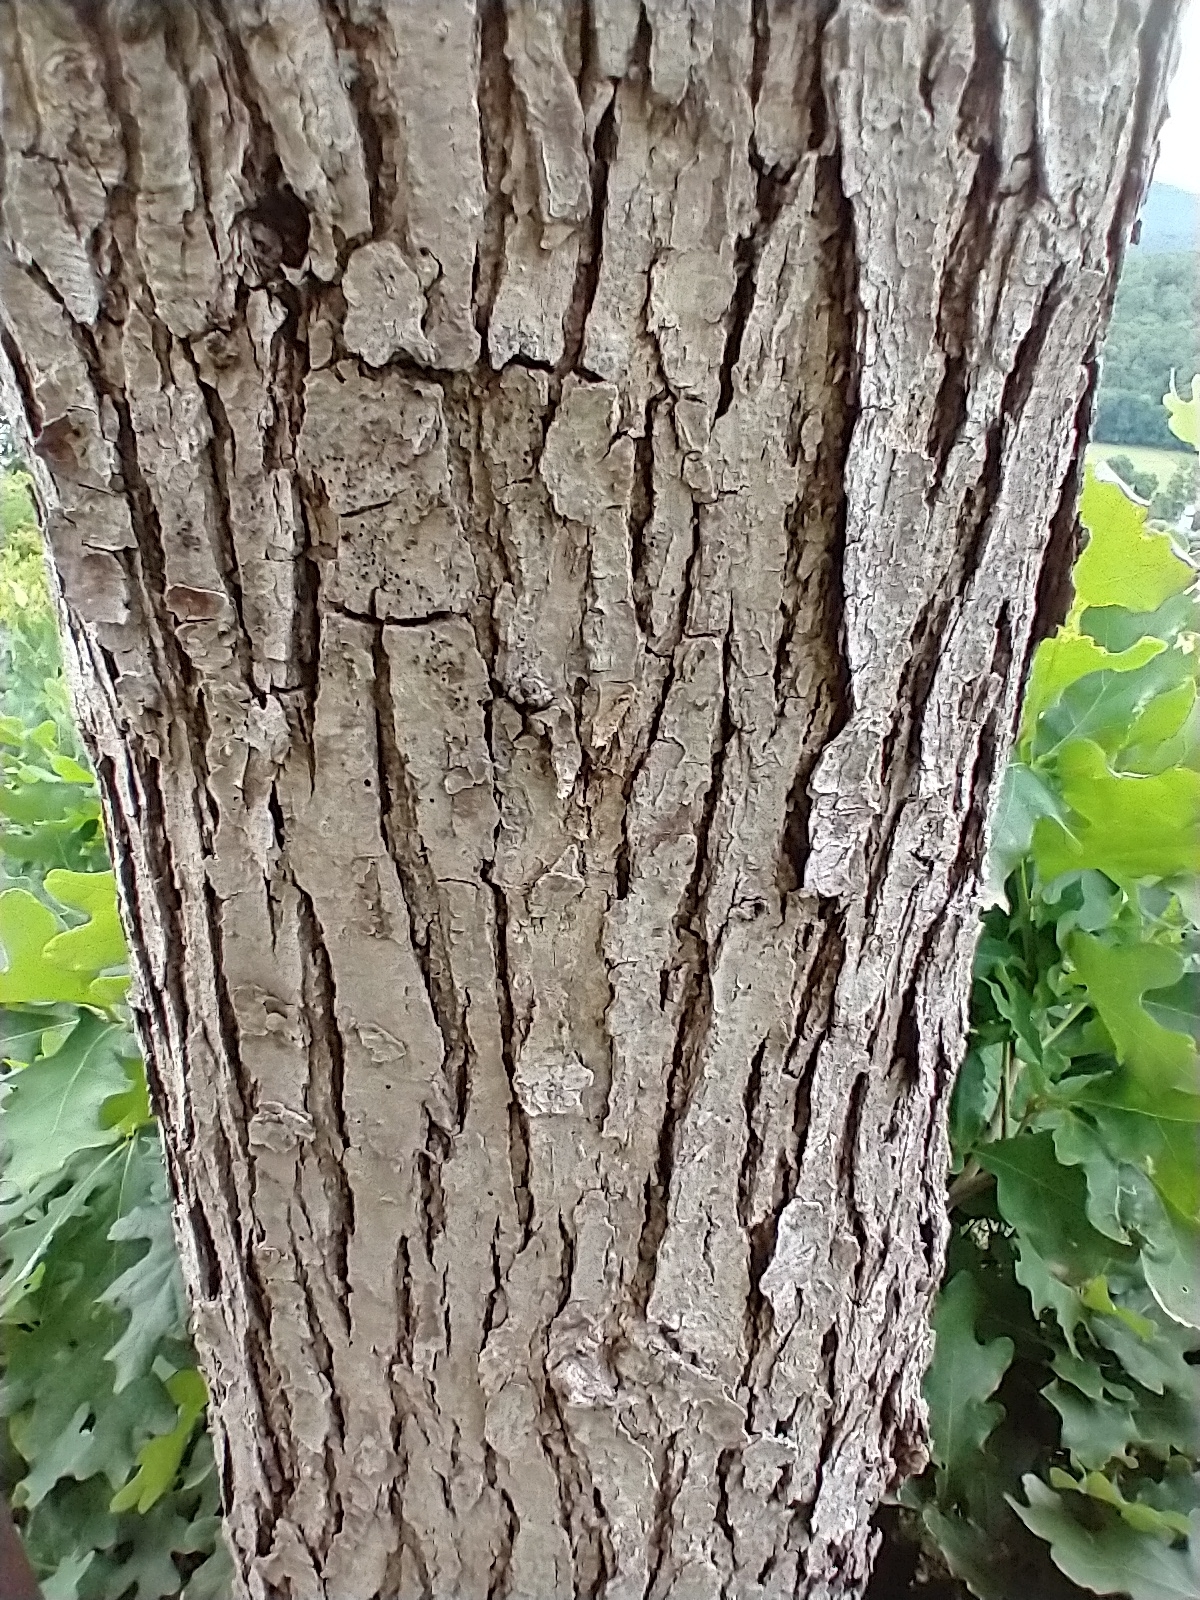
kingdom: Plantae
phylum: Tracheophyta
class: Magnoliopsida
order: Fagales
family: Fagaceae
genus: Quercus
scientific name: Quercus alba
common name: White oak
